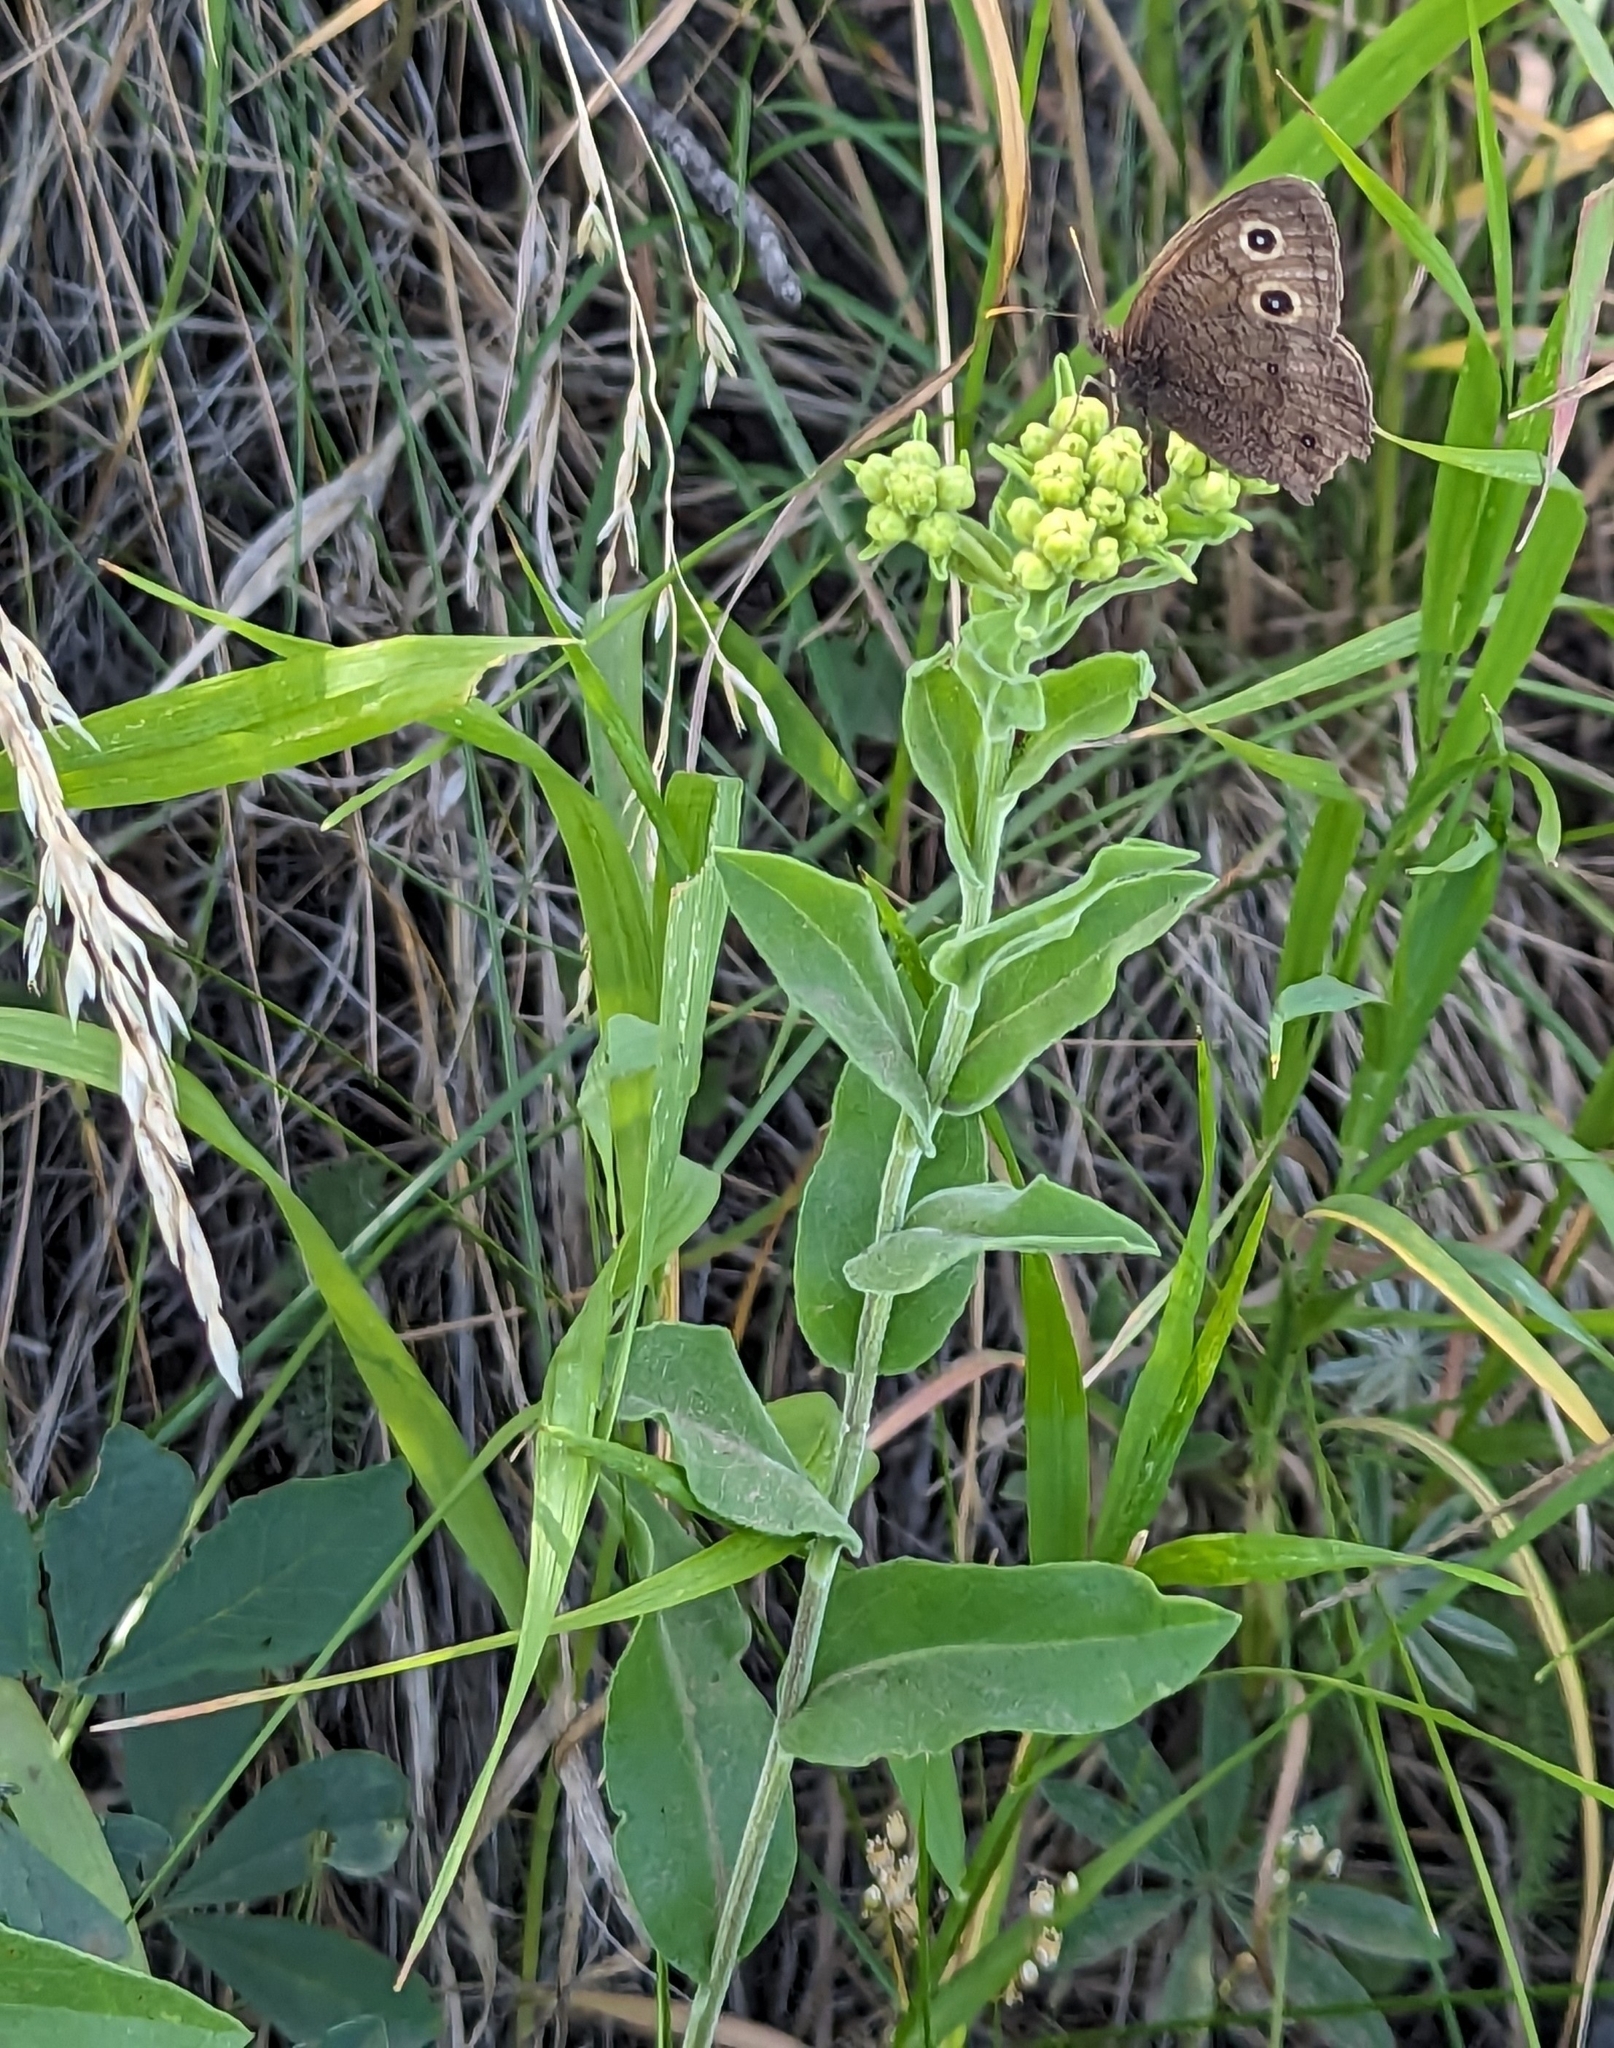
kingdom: Plantae
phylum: Tracheophyta
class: Magnoliopsida
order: Asterales
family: Asteraceae
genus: Solidago
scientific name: Solidago rigida
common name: Rigid goldenrod
